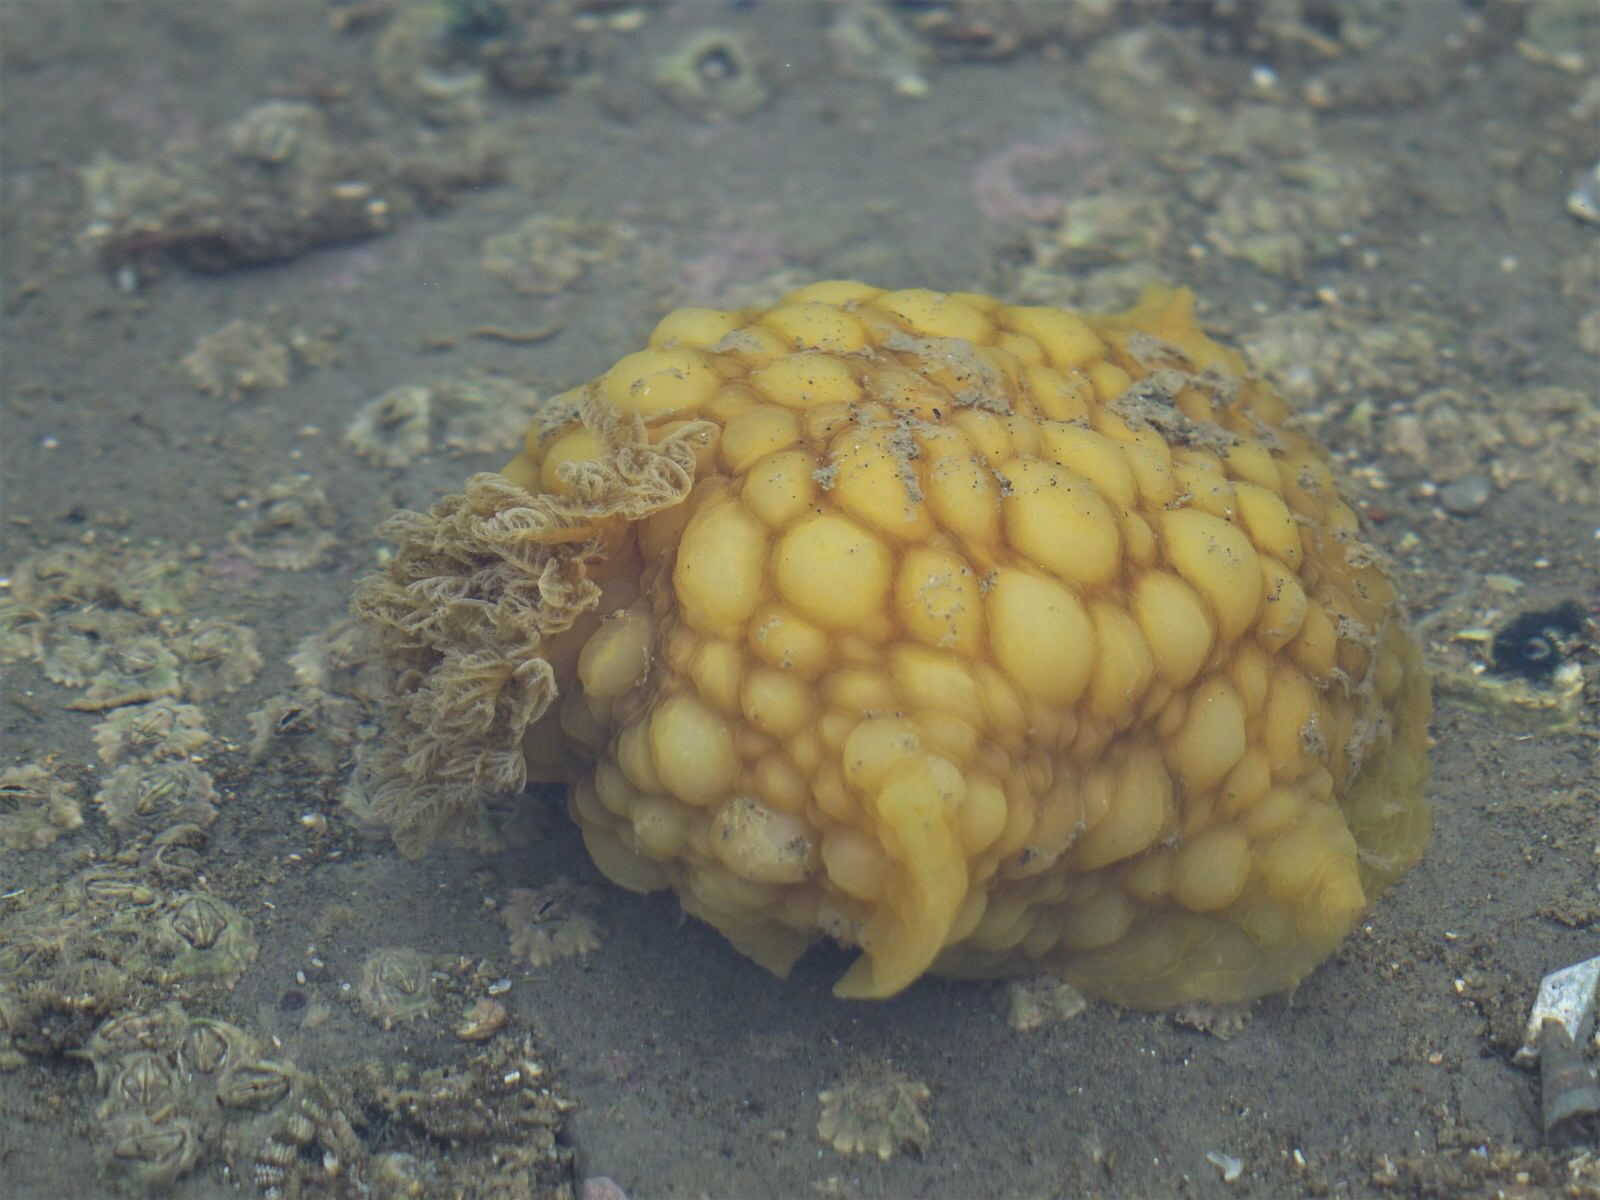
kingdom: Animalia
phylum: Mollusca
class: Gastropoda
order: Nudibranchia
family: Dorididae
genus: Doris
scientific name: Doris wellingtonensis
